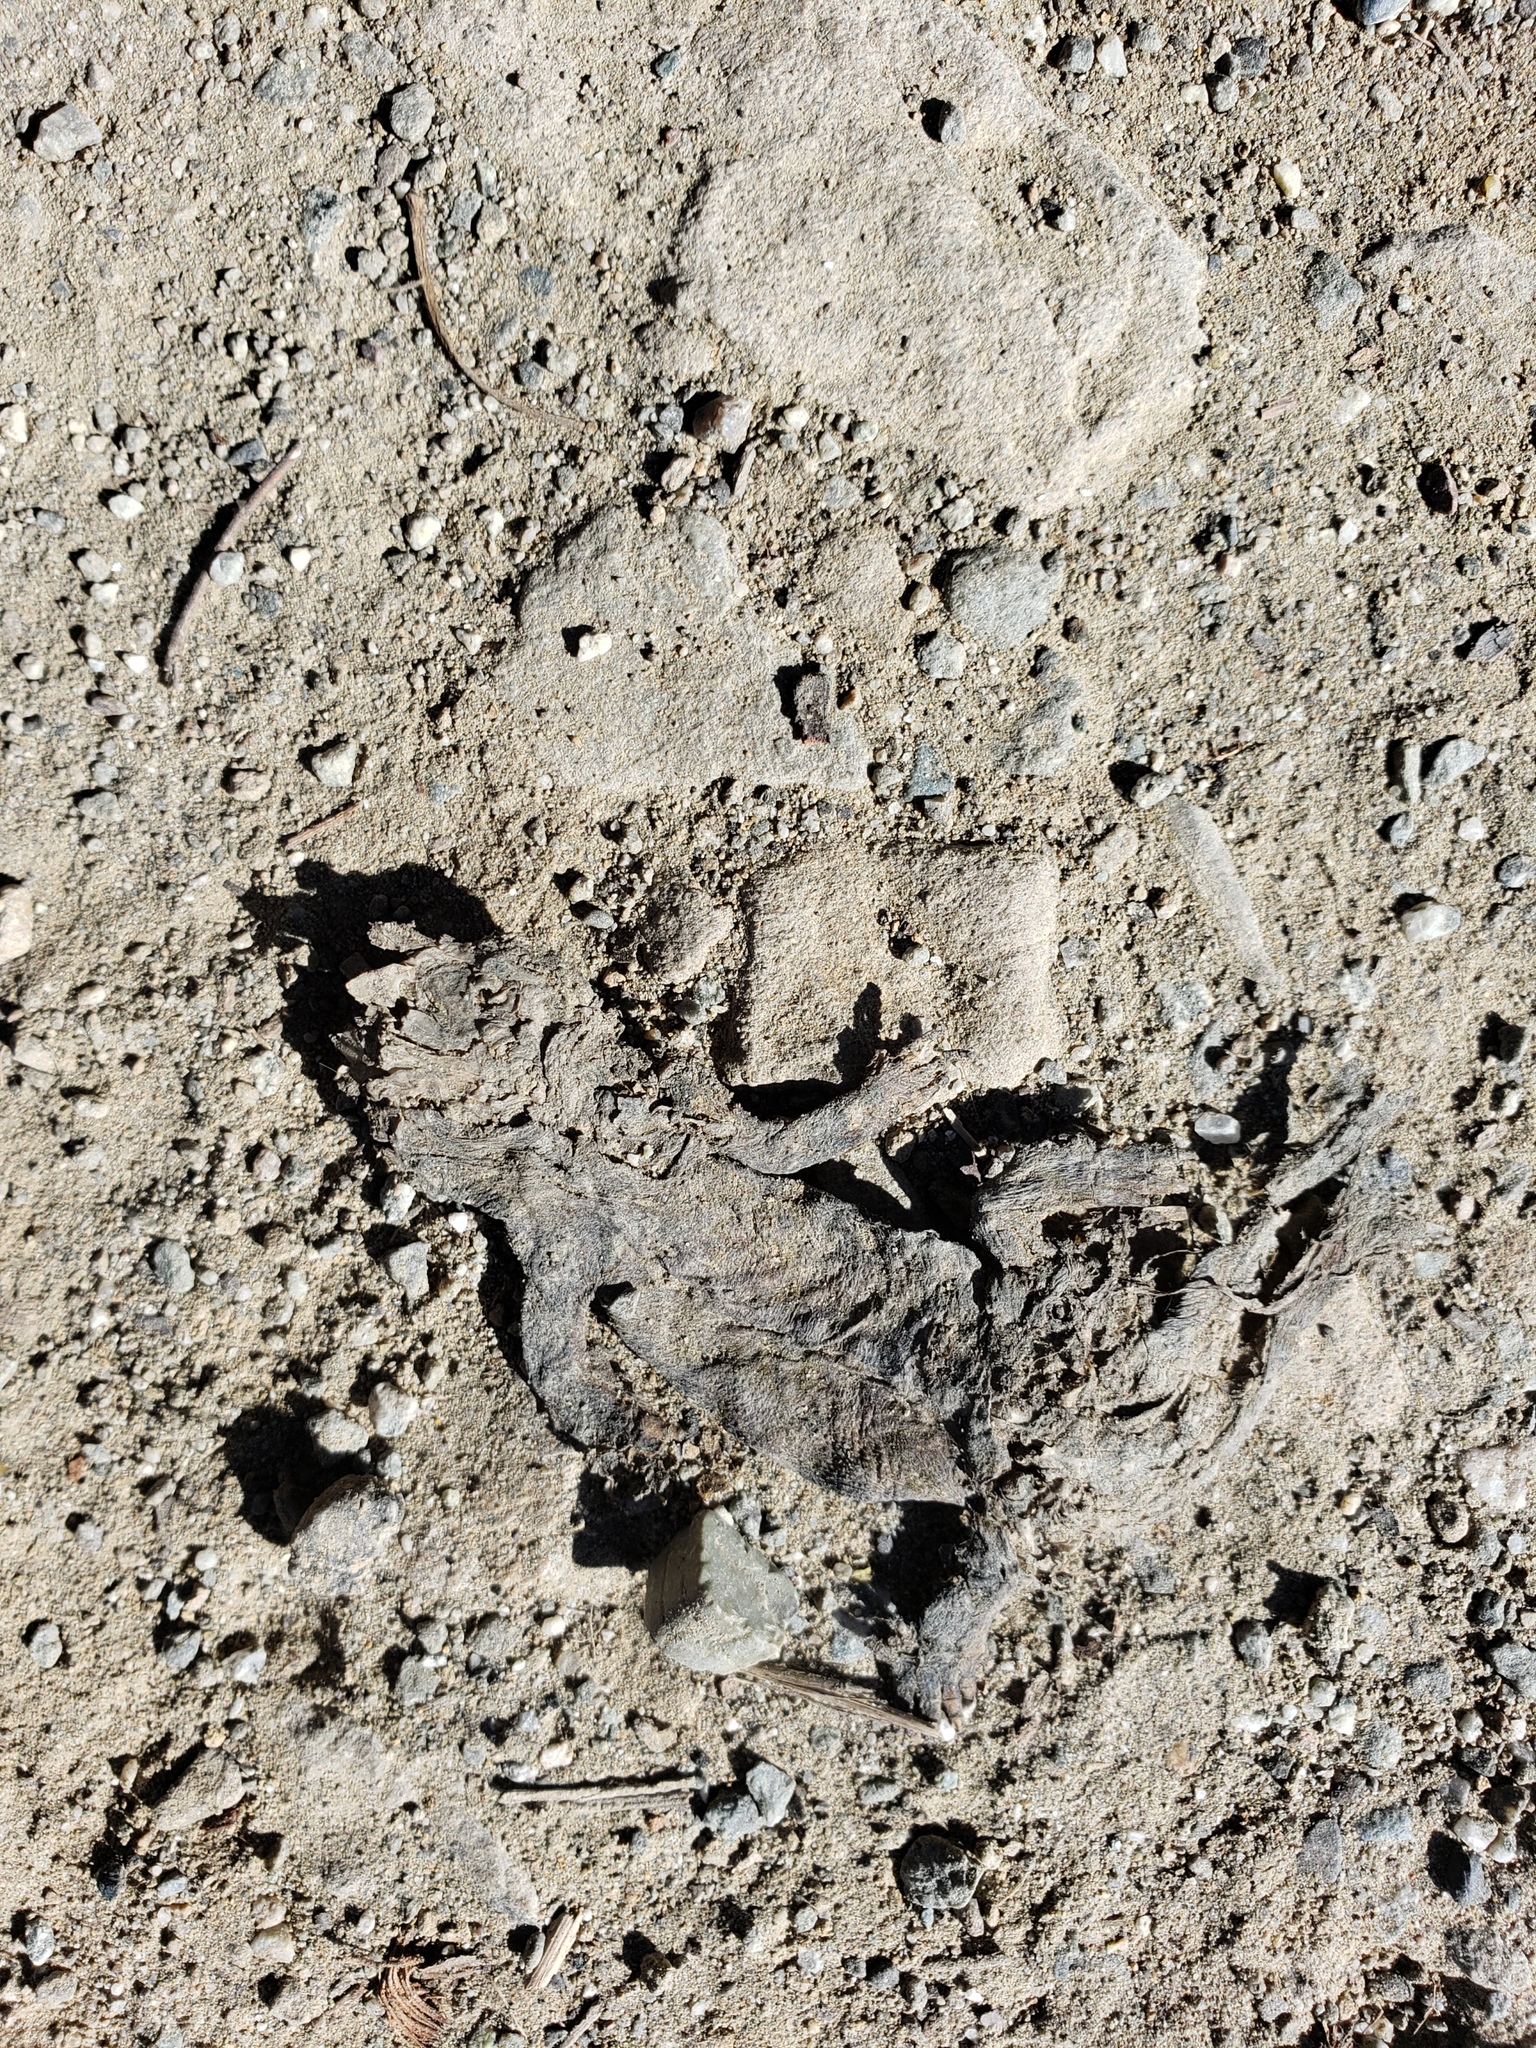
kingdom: Animalia
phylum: Chordata
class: Amphibia
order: Caudata
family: Salamandridae
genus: Taricha
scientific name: Taricha
